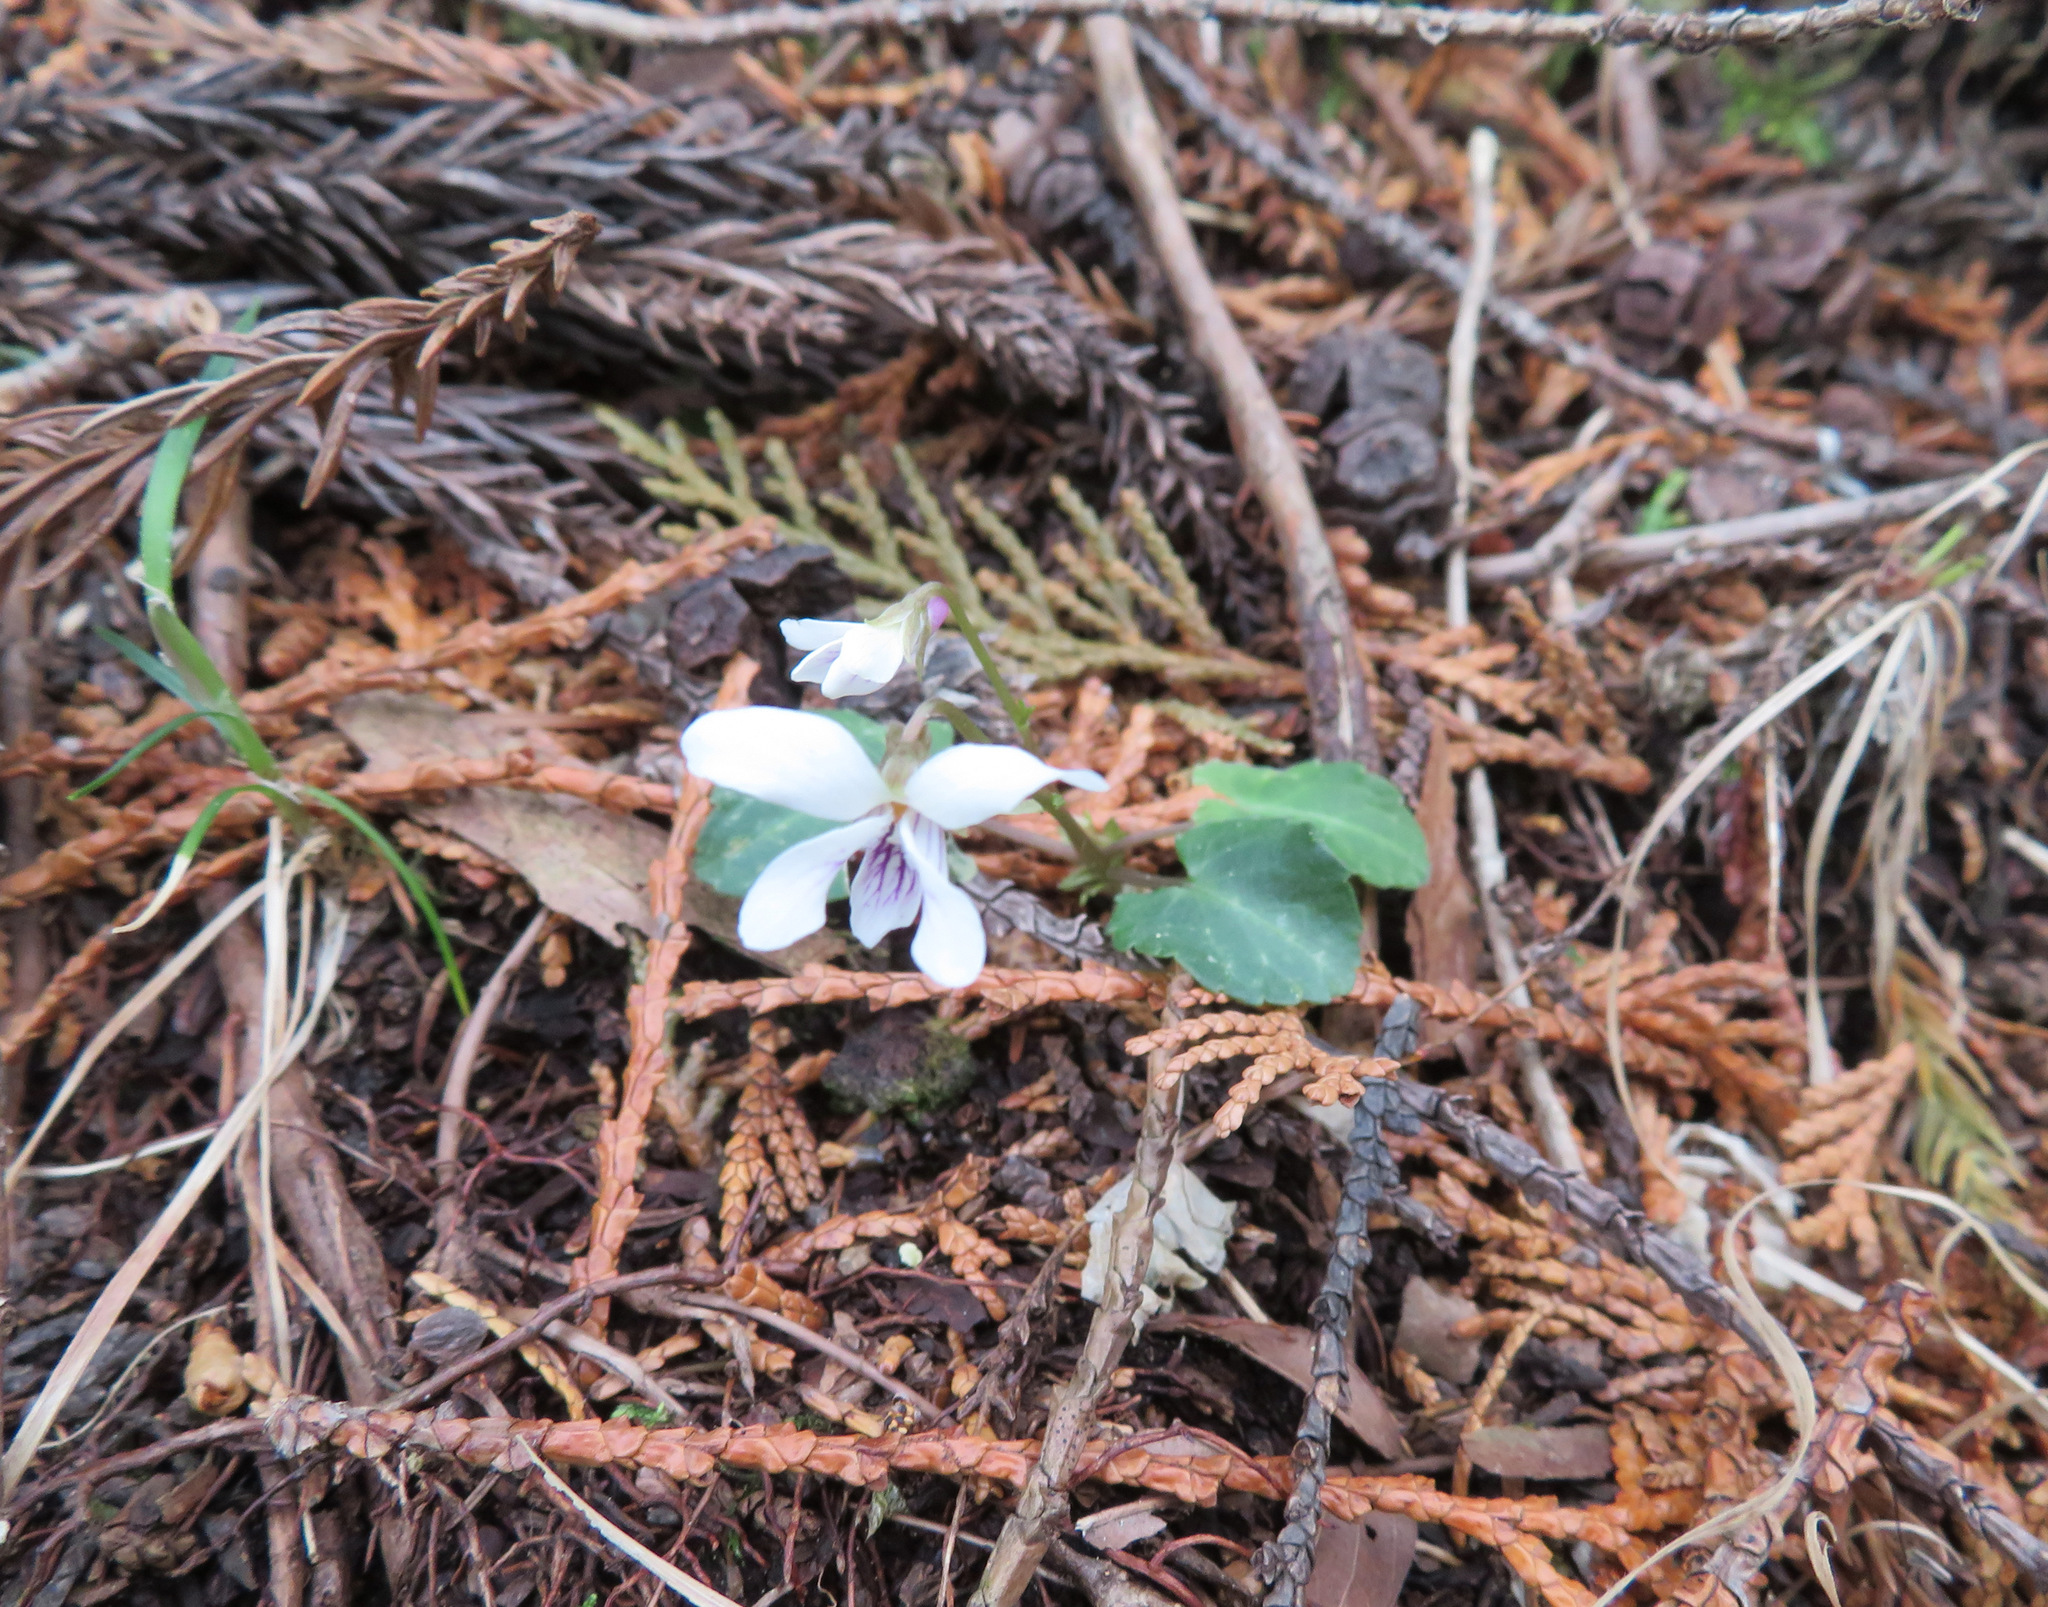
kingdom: Plantae
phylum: Tracheophyta
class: Magnoliopsida
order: Malpighiales
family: Violaceae
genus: Viola
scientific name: Viola sieboldii
